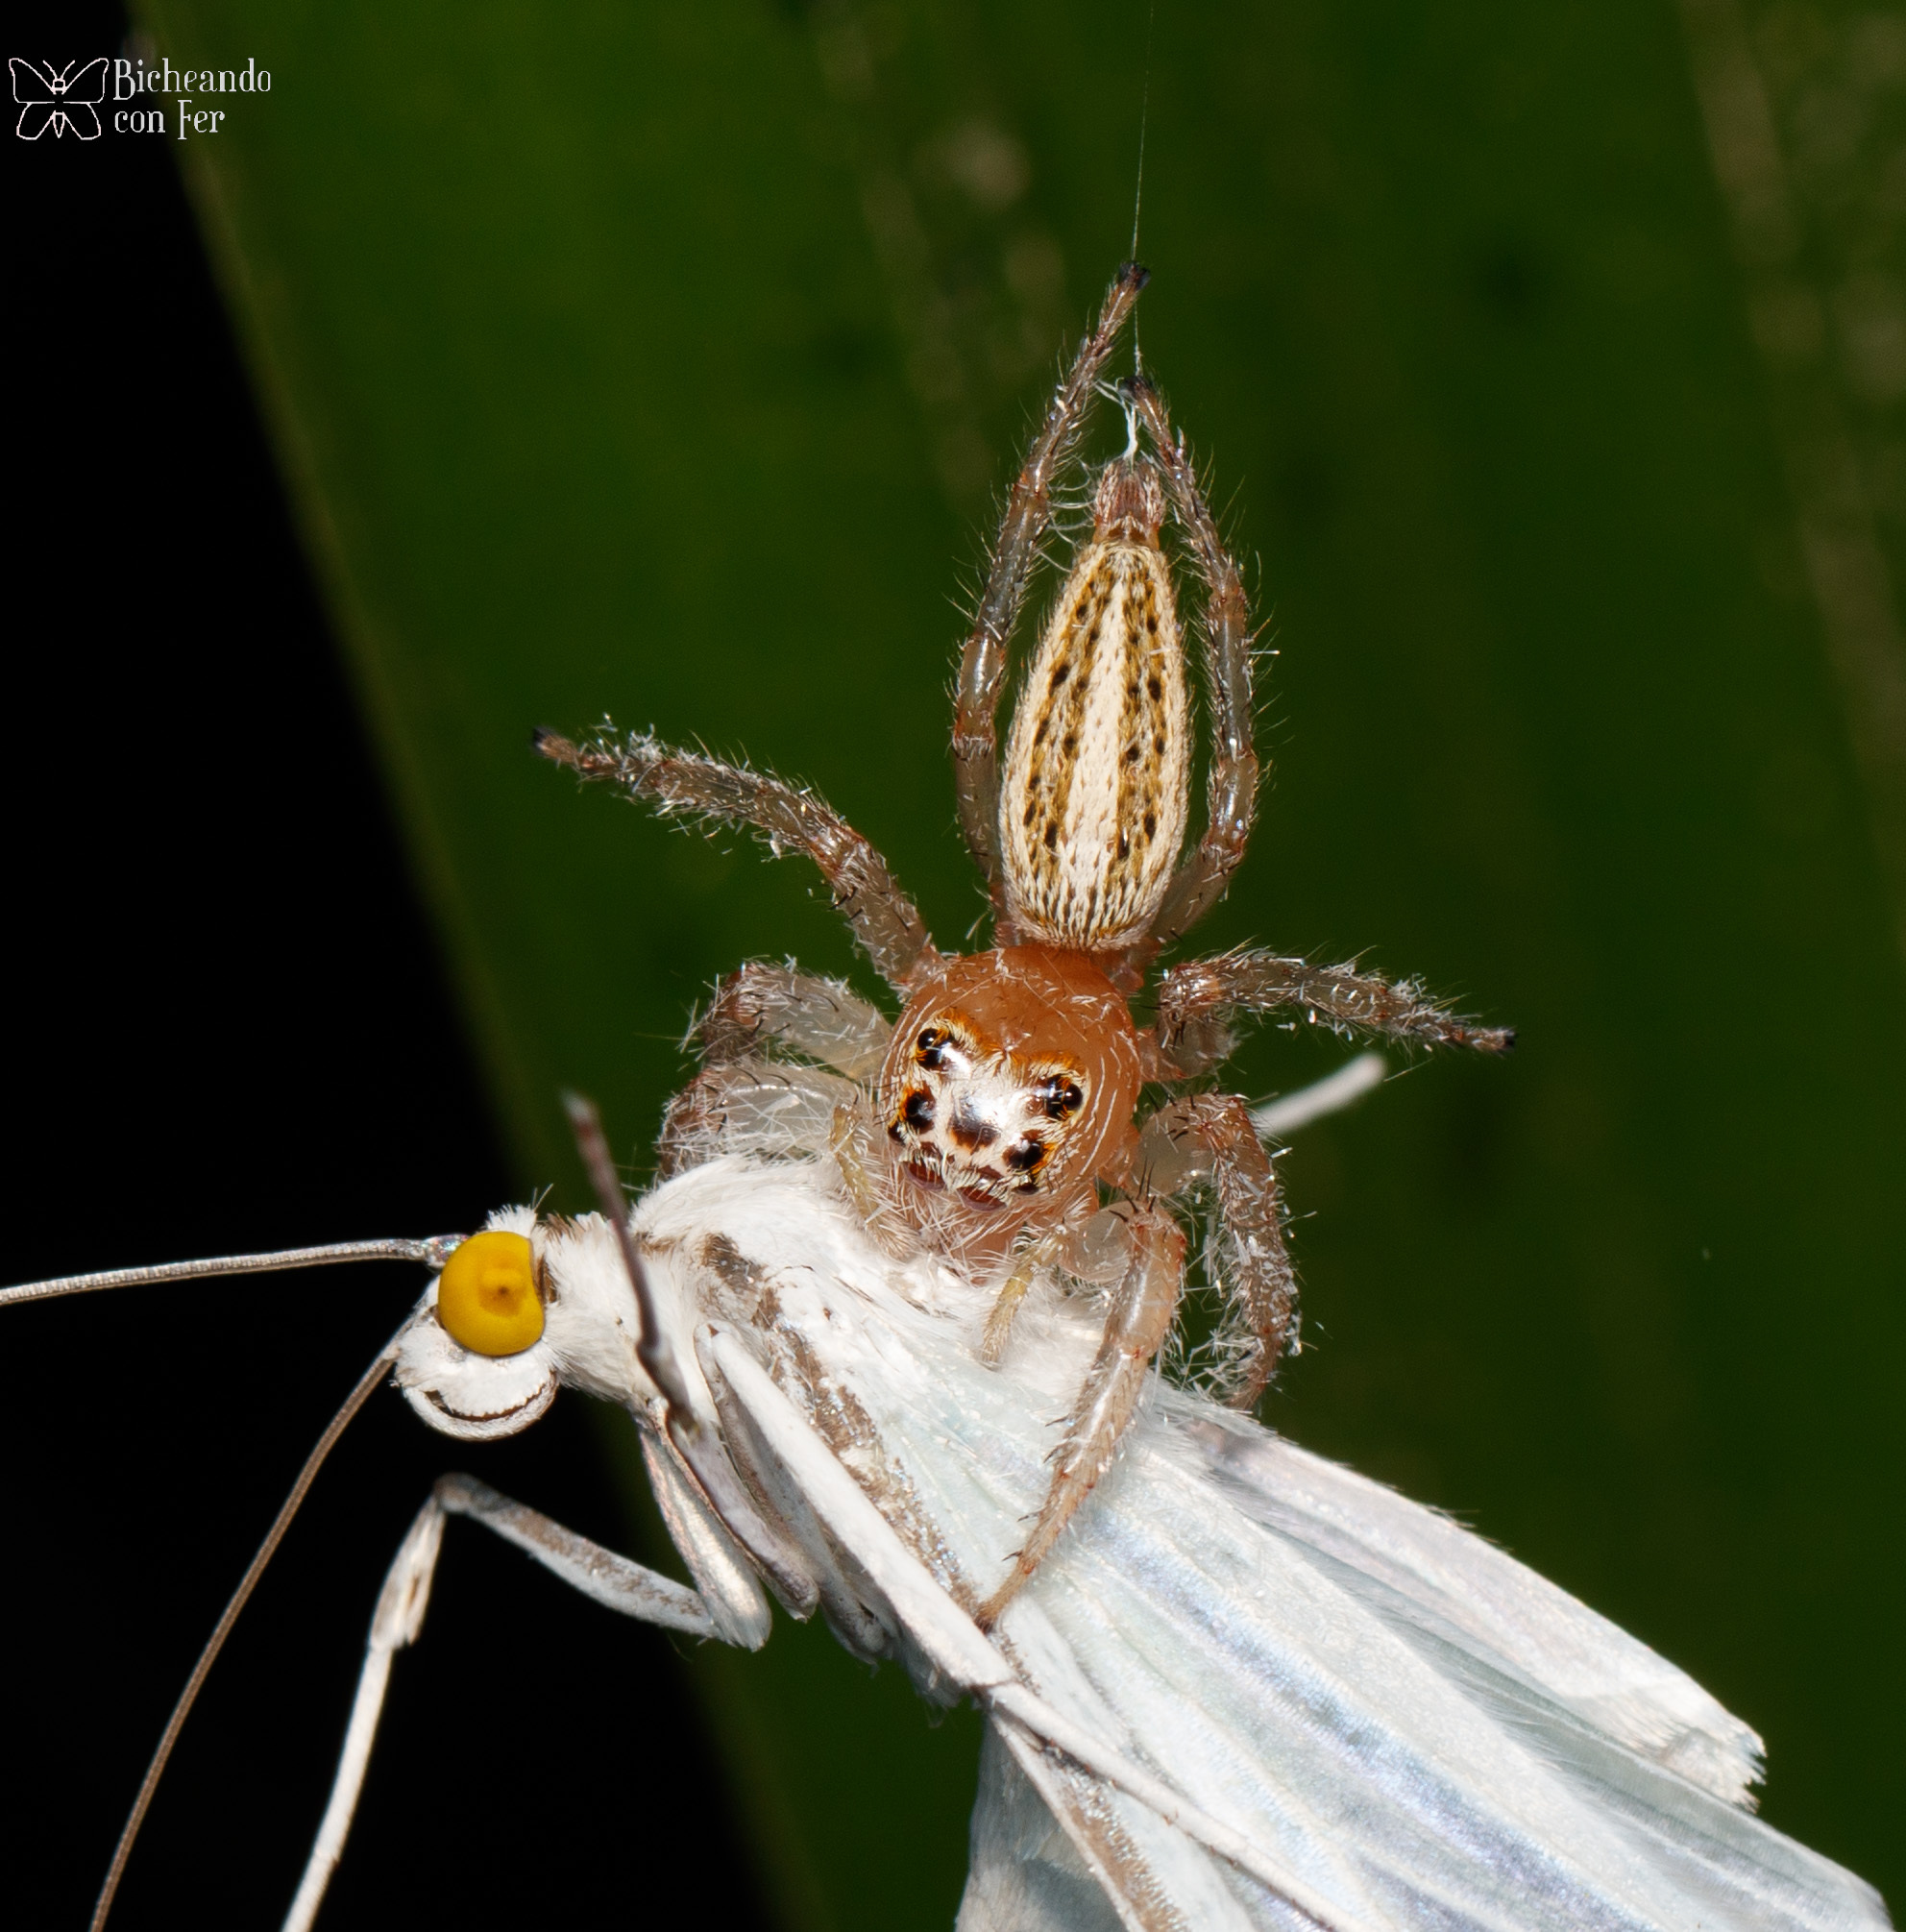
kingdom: Animalia
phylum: Arthropoda
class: Arachnida
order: Araneae
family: Salticidae
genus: Colonus
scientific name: Colonus
